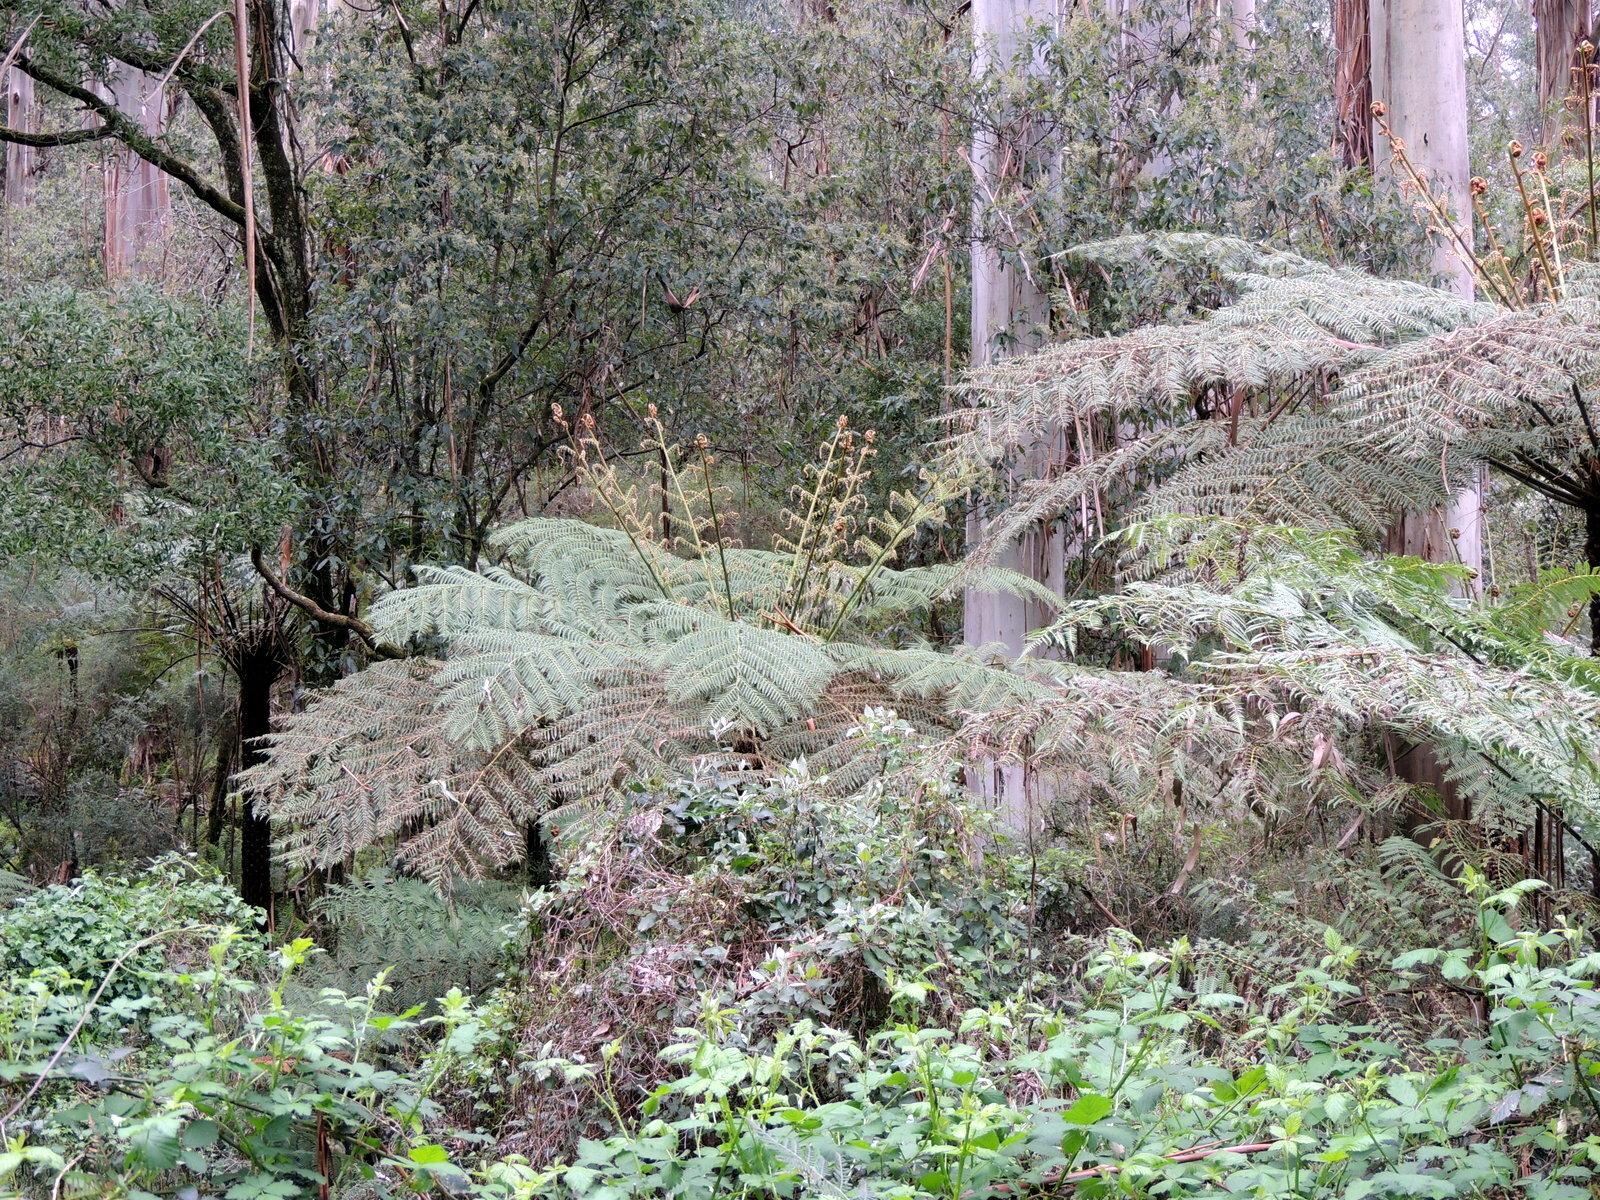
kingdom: Plantae
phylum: Tracheophyta
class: Polypodiopsida
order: Cyatheales
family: Cyatheaceae
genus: Alsophila
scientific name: Alsophila australis
